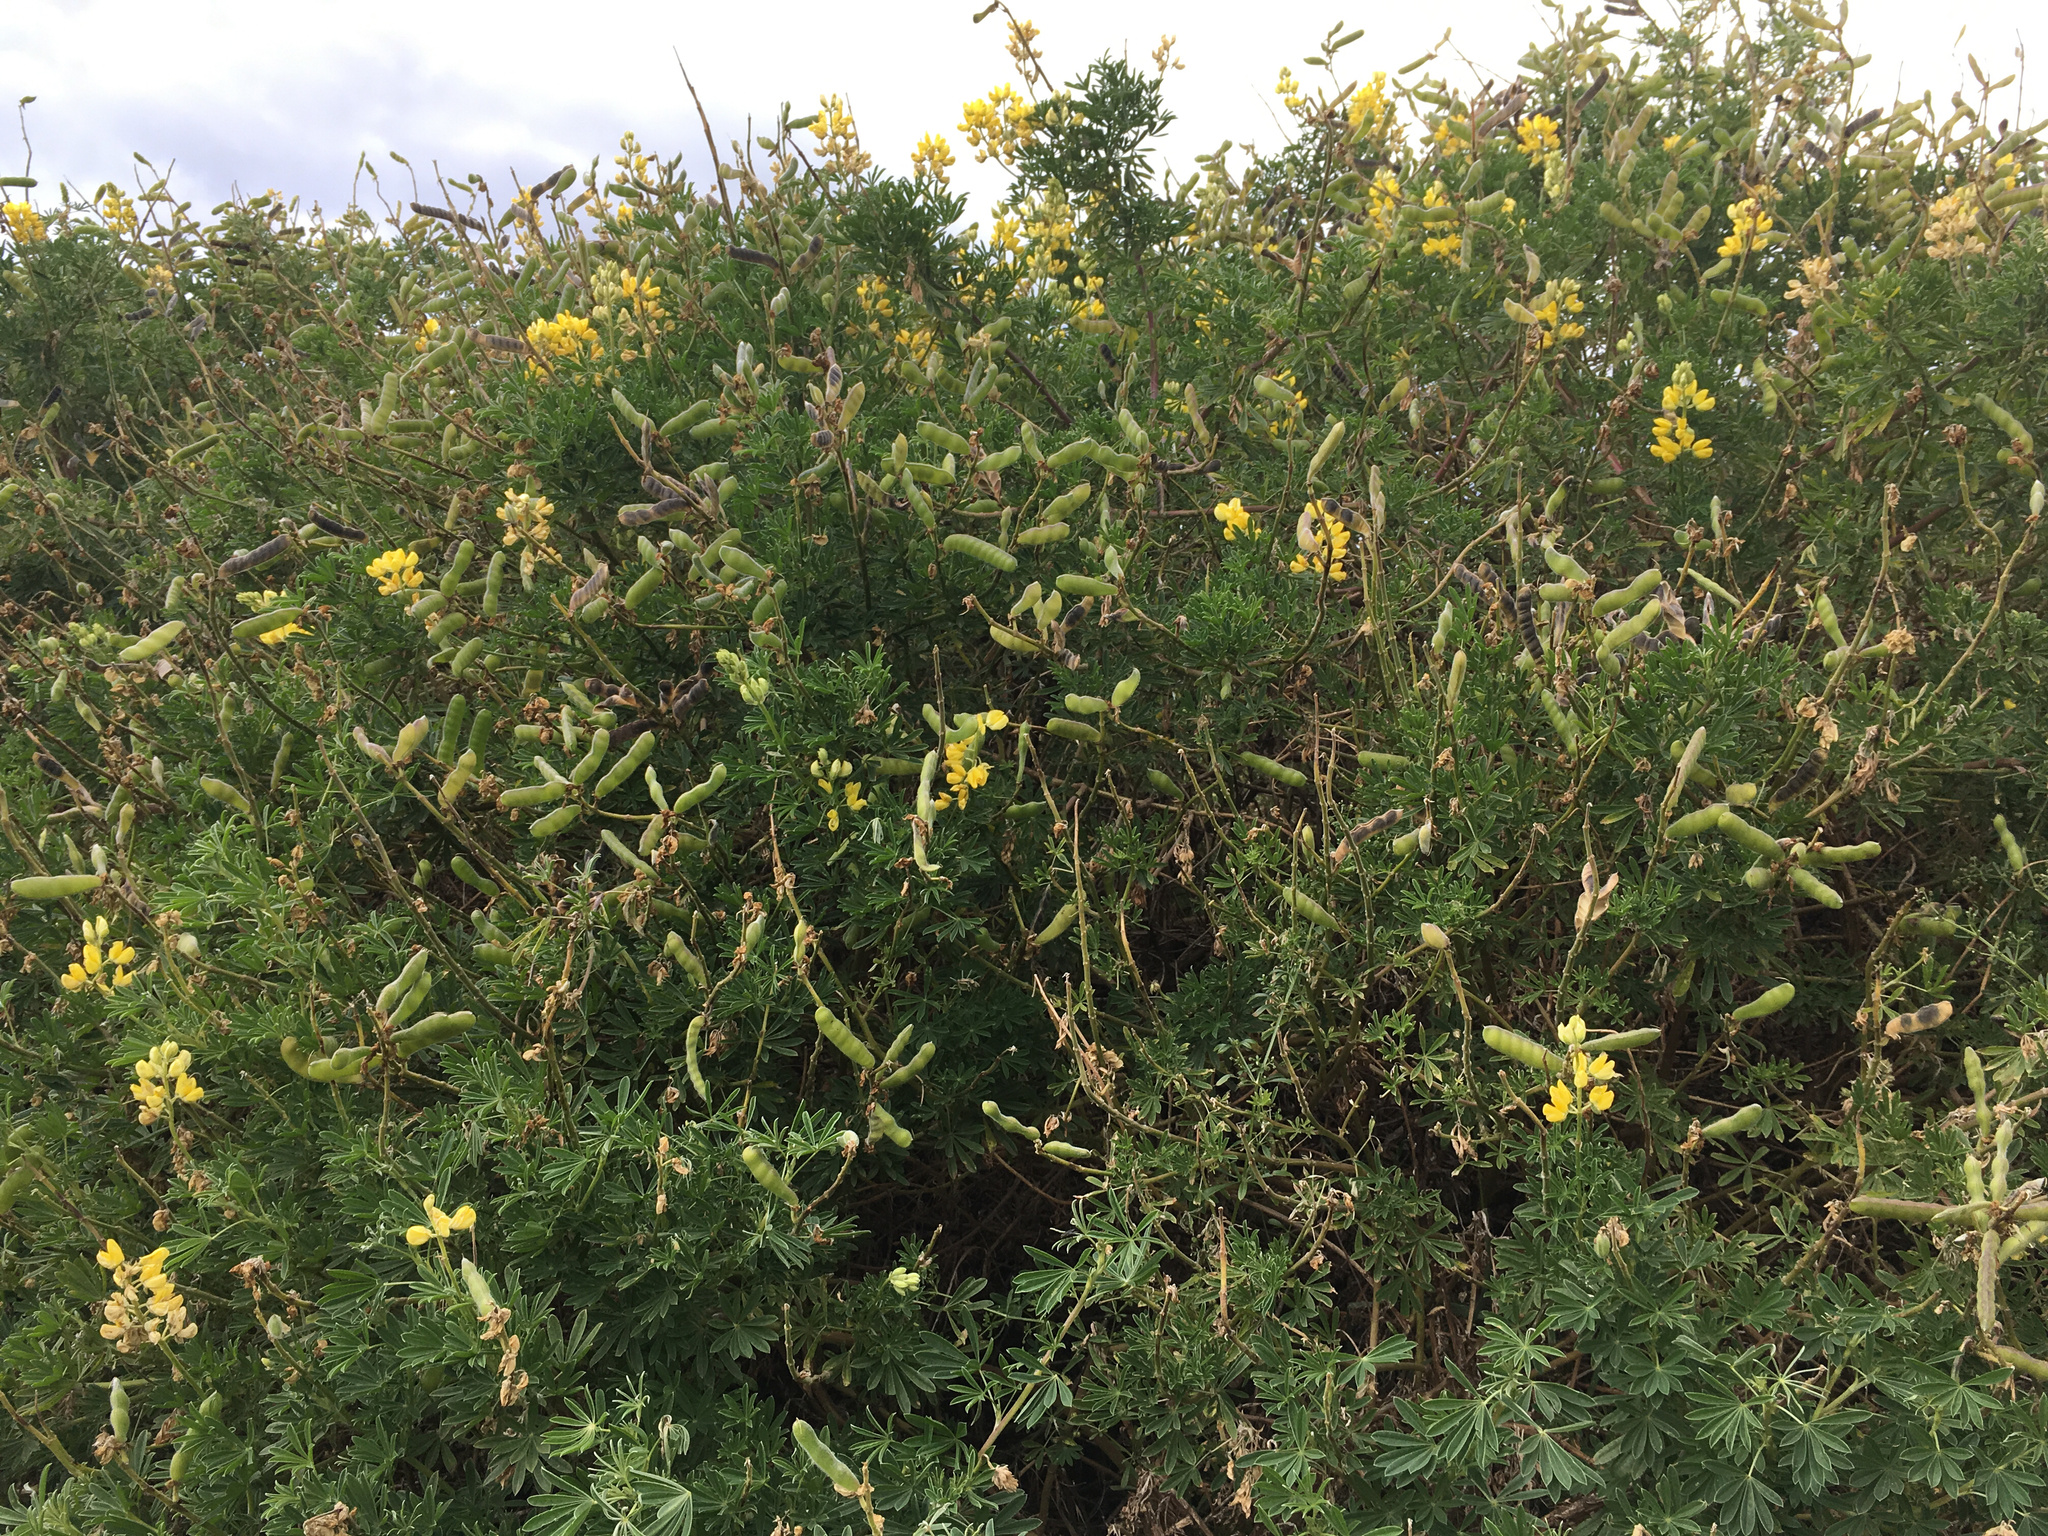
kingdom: Plantae
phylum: Tracheophyta
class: Magnoliopsida
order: Fabales
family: Fabaceae
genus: Lupinus
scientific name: Lupinus arboreus
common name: Yellow bush lupine
